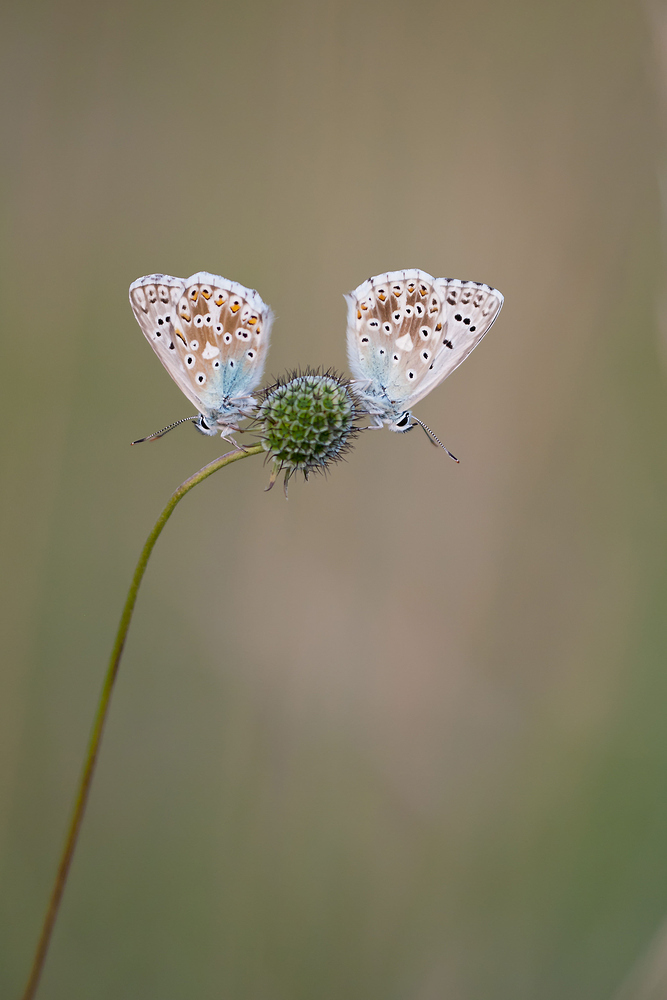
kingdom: Animalia
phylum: Arthropoda
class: Insecta
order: Lepidoptera
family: Lycaenidae
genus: Lysandra
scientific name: Lysandra coridon
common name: Chalkhill blue
